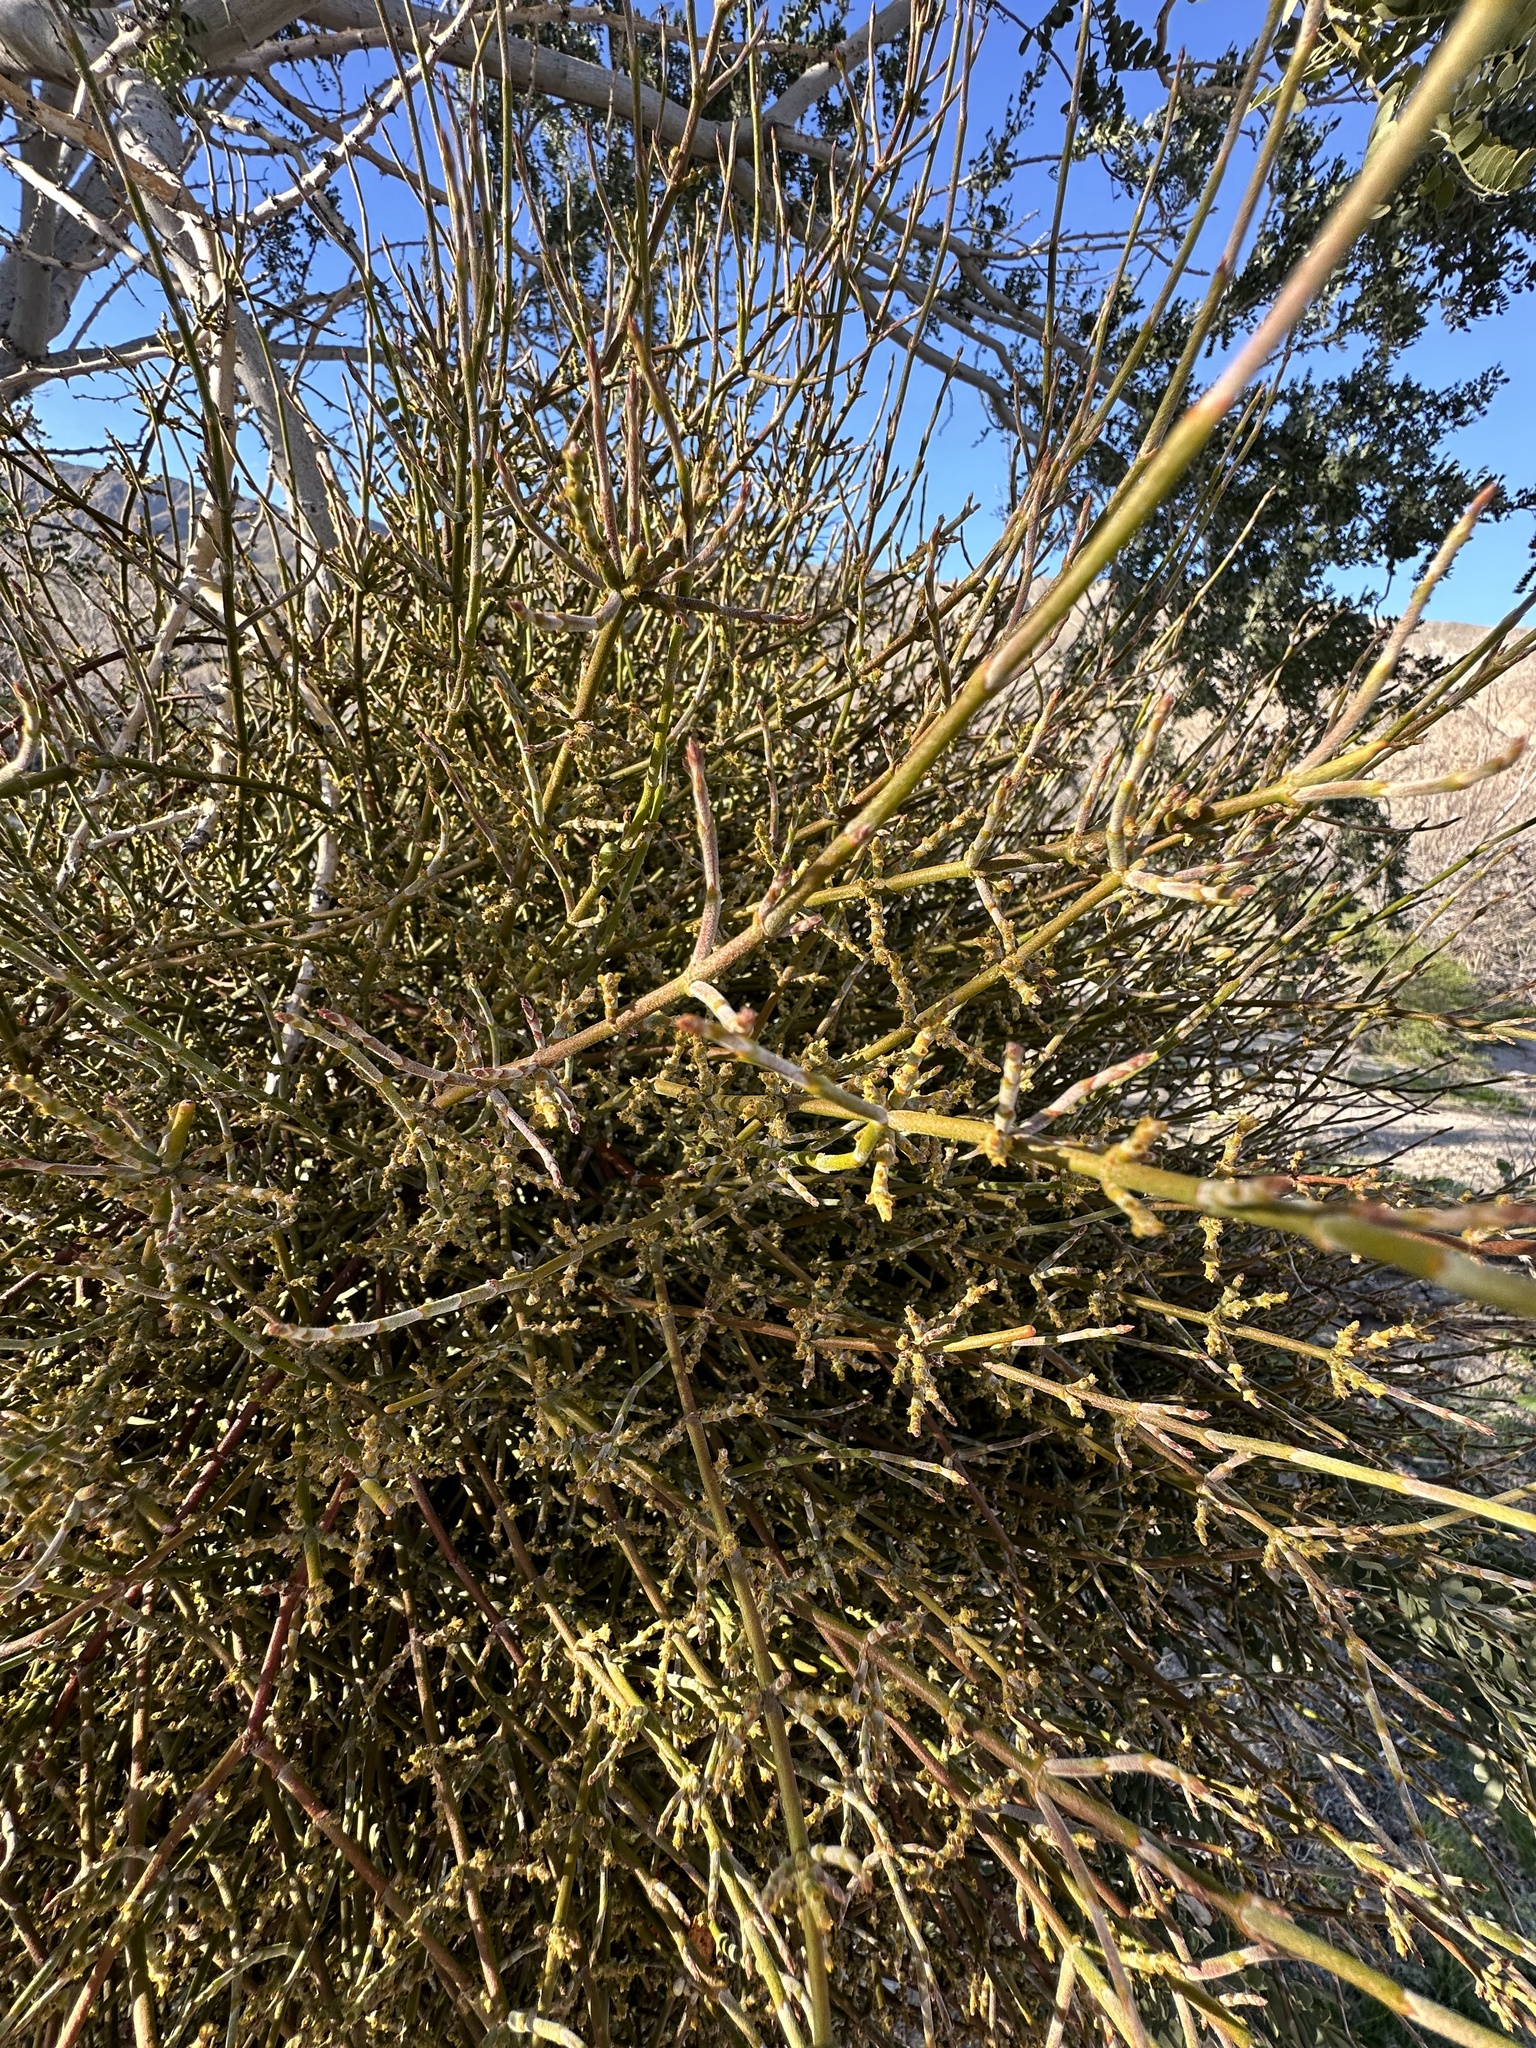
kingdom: Plantae
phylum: Tracheophyta
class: Magnoliopsida
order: Santalales
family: Viscaceae
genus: Phoradendron
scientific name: Phoradendron californicum
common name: Acacia mistletoe
